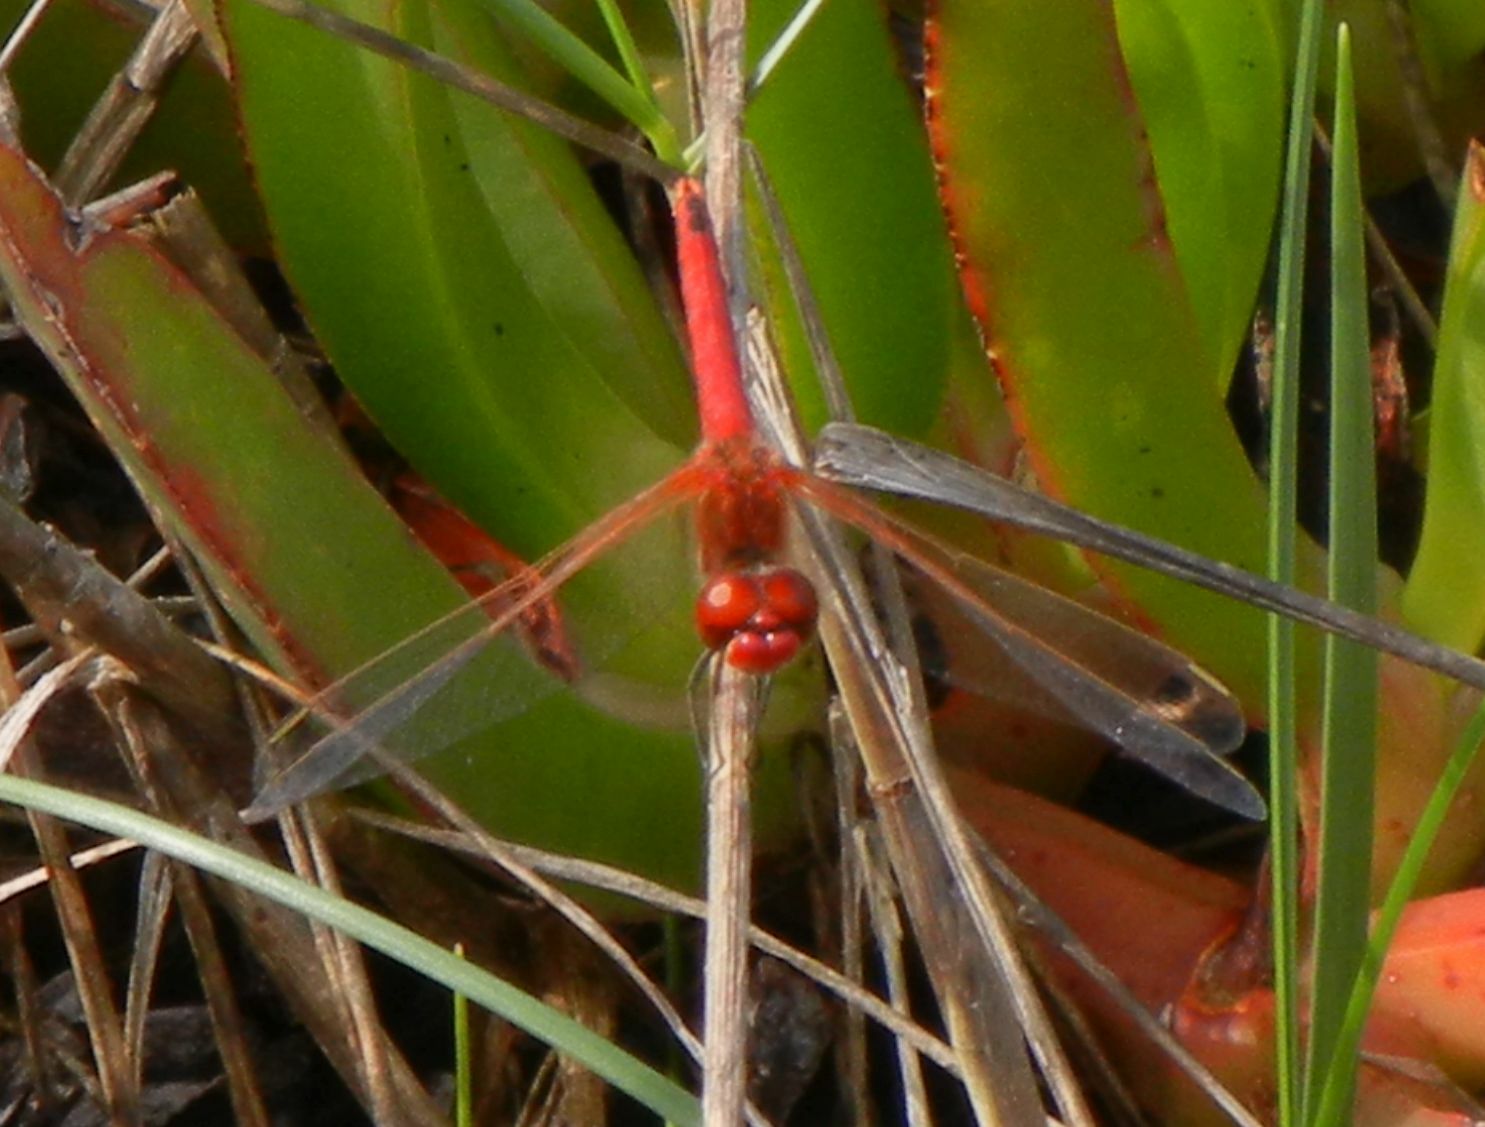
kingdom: Animalia
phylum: Arthropoda
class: Insecta
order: Odonata
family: Libellulidae
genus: Sympetrum
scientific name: Sympetrum fonscolombii
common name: Red-veined darter
